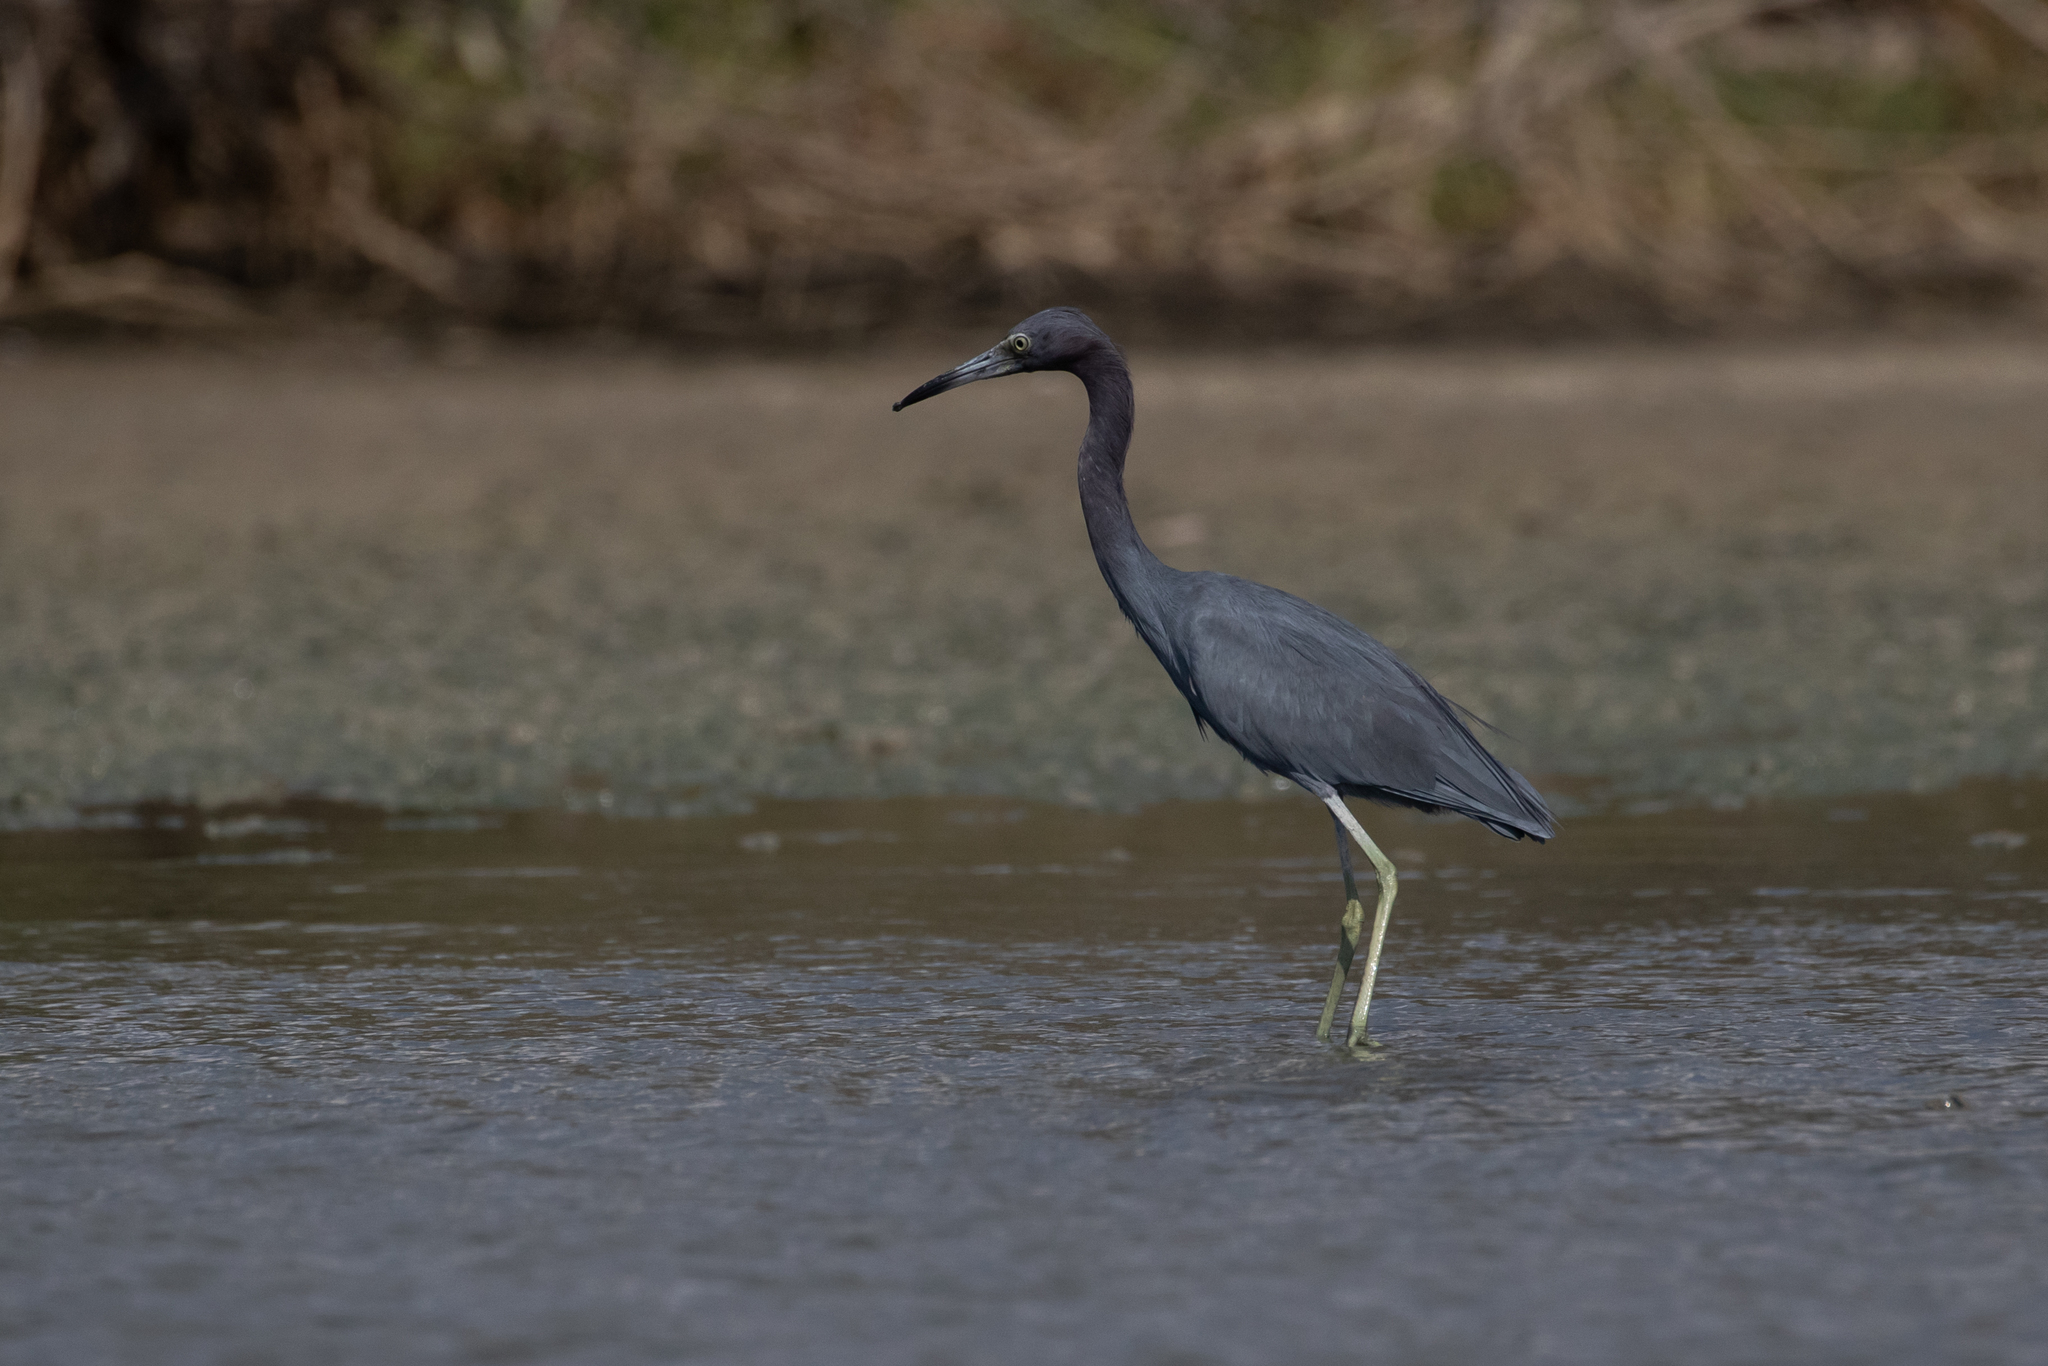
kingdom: Animalia
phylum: Chordata
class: Aves
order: Pelecaniformes
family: Ardeidae
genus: Egretta
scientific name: Egretta caerulea
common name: Little blue heron
